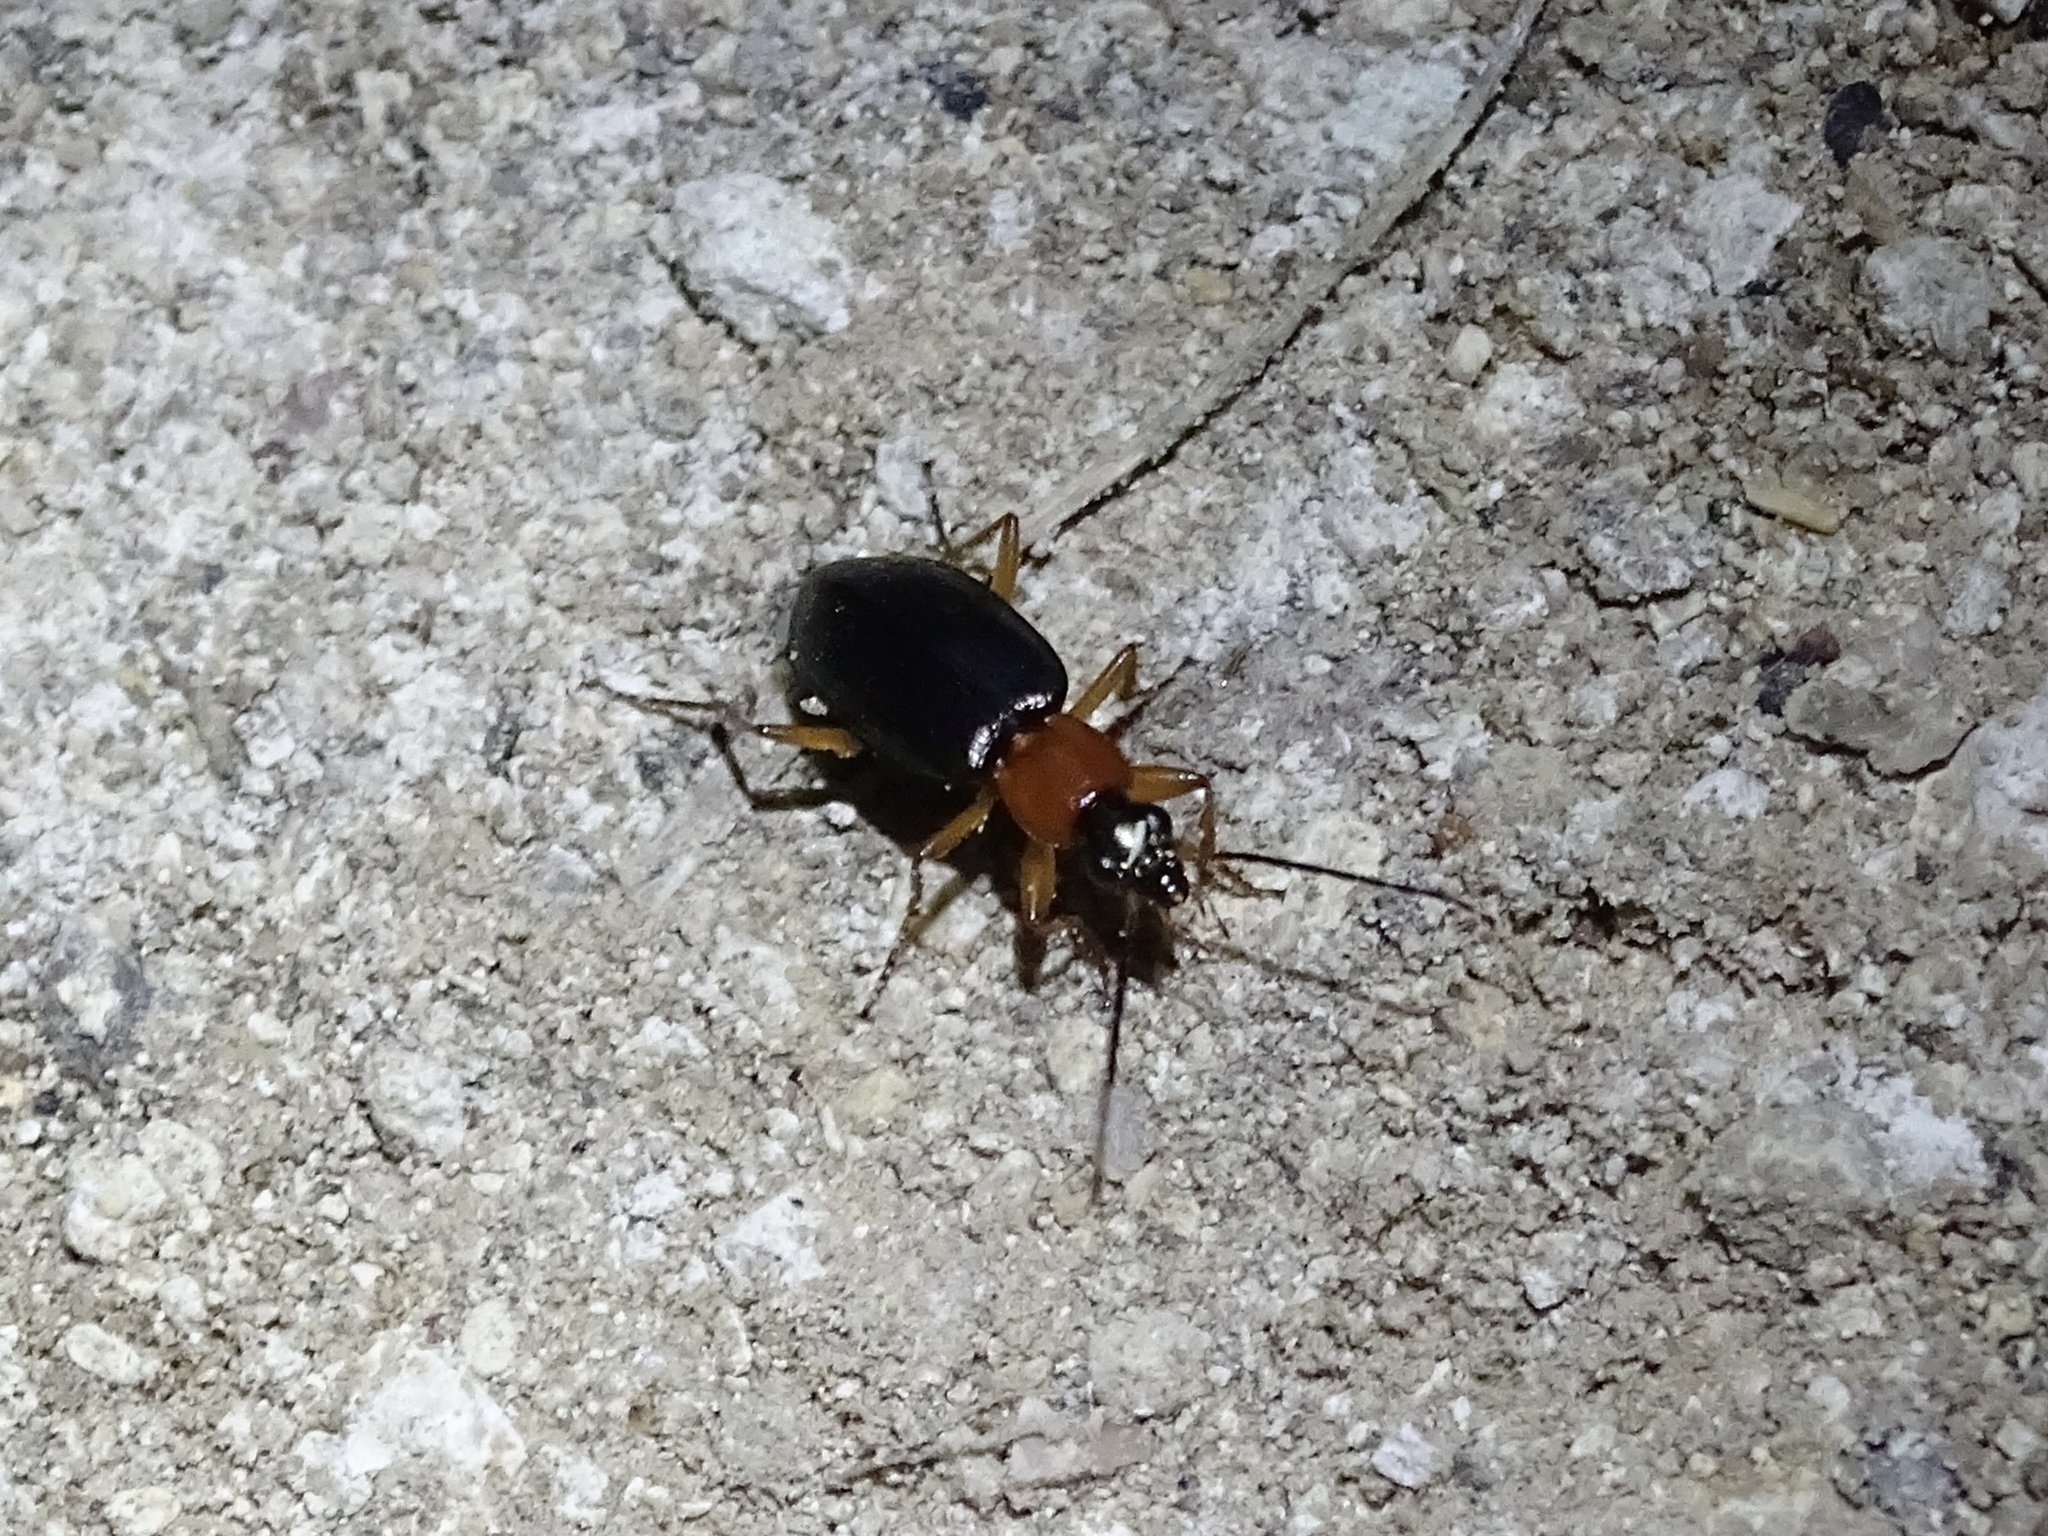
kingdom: Animalia
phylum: Arthropoda
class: Insecta
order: Coleoptera
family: Carabidae
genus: Agonum
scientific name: Agonum decorum
